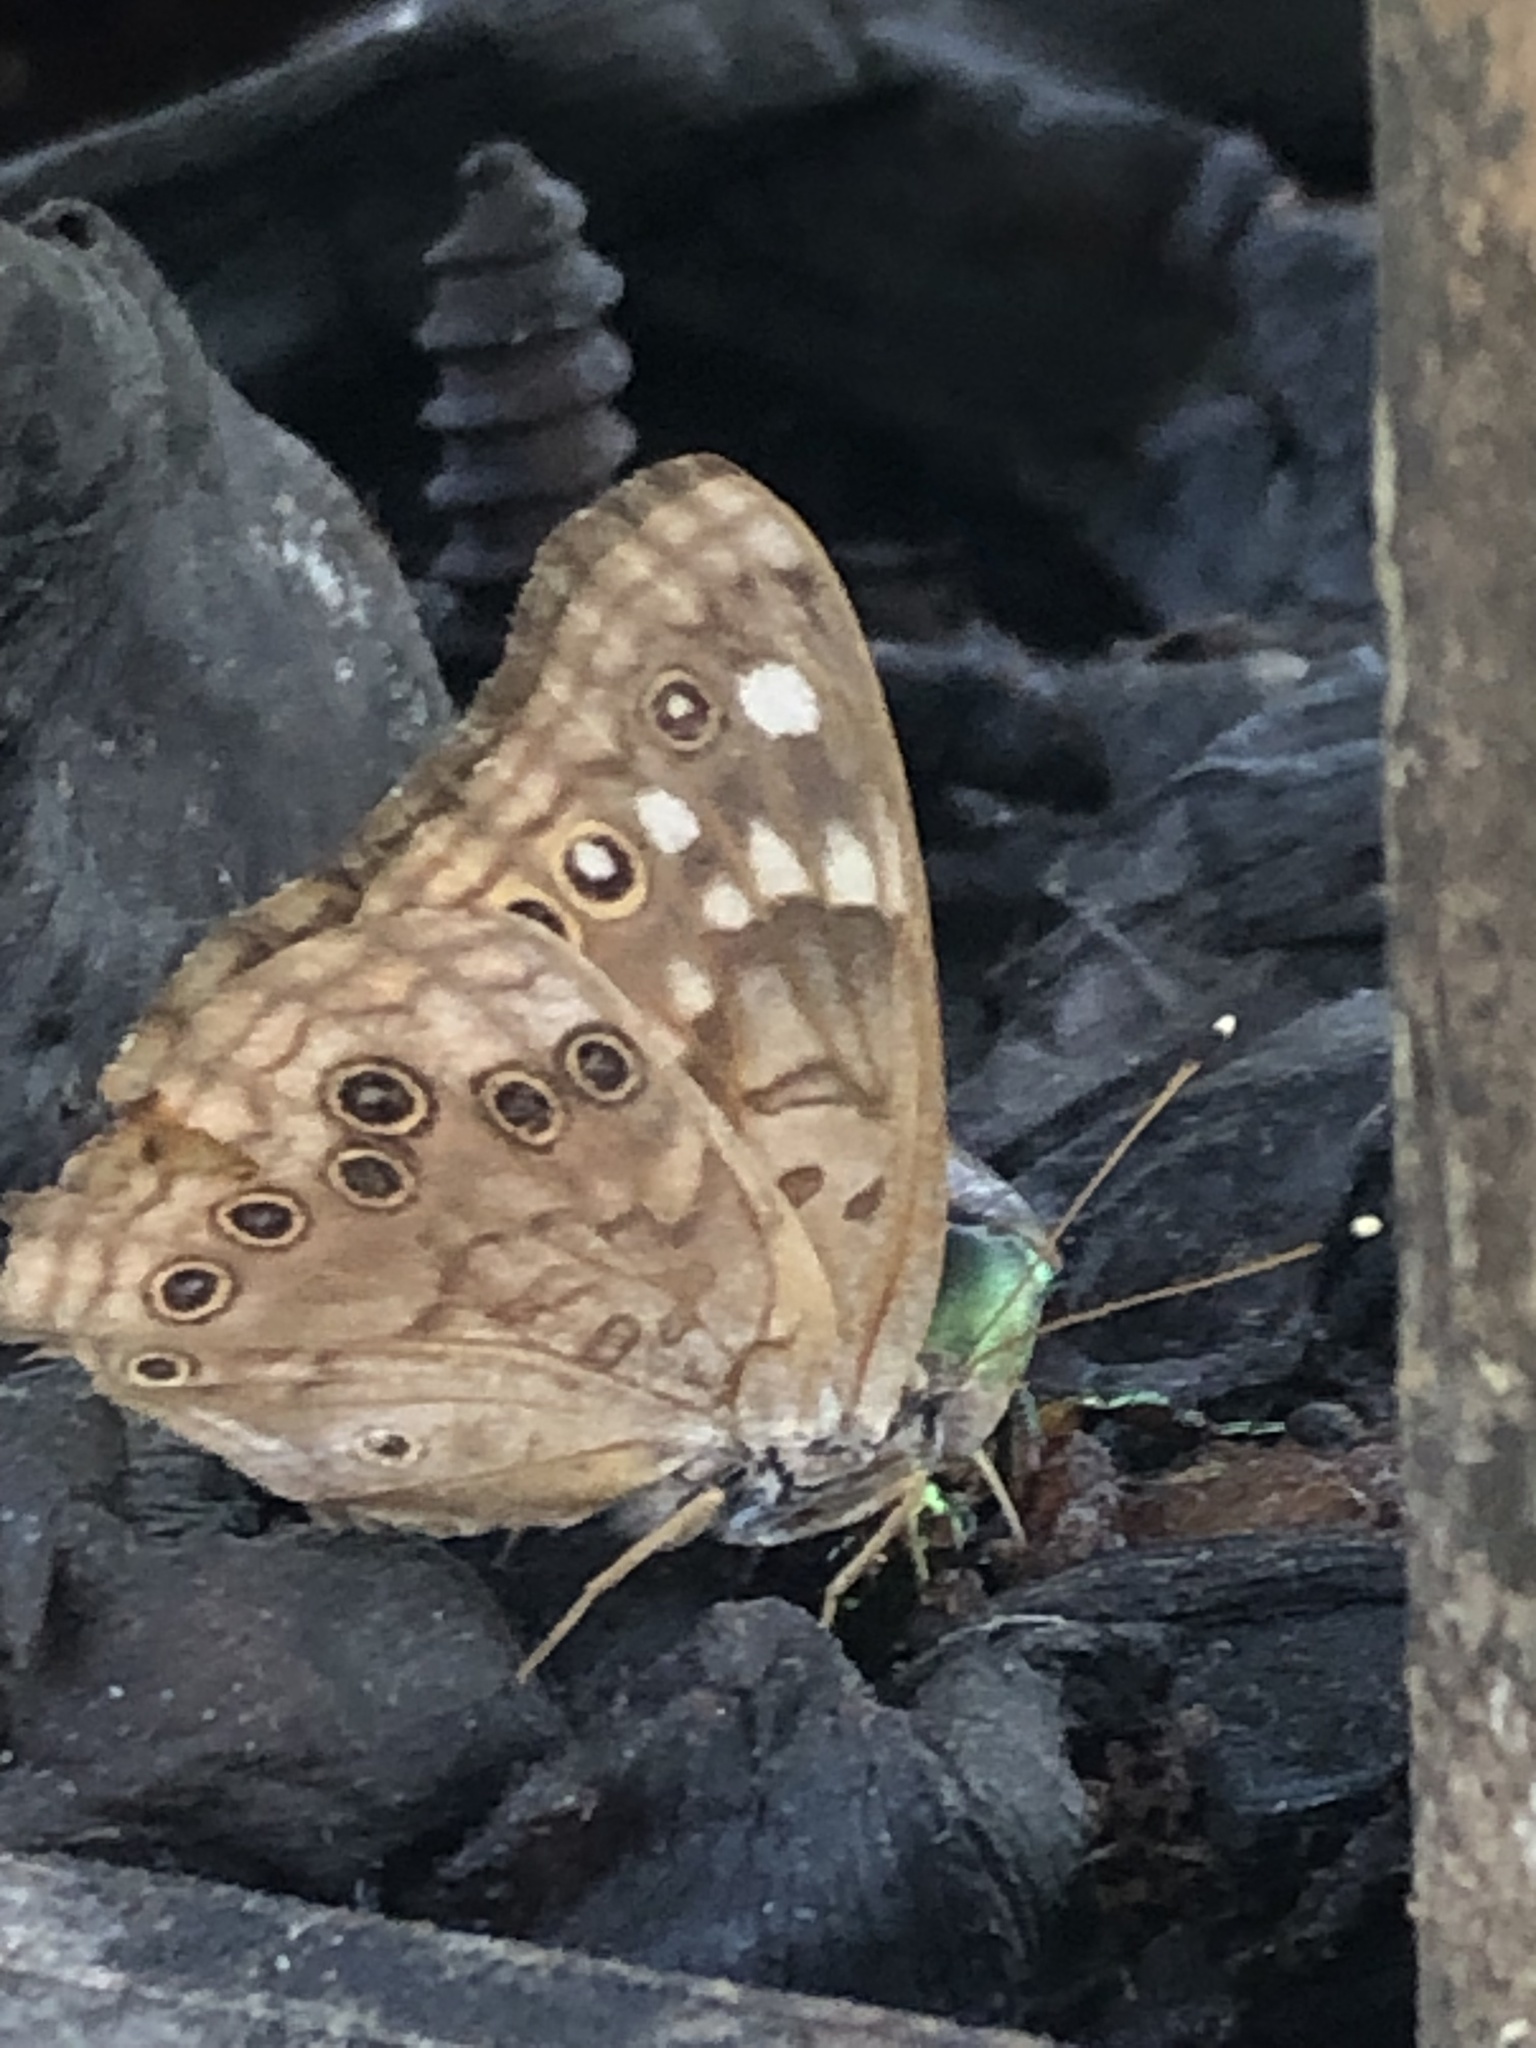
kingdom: Animalia
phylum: Arthropoda
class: Insecta
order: Lepidoptera
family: Nymphalidae
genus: Asterocampa
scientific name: Asterocampa celtis
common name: Hackberry emperor
